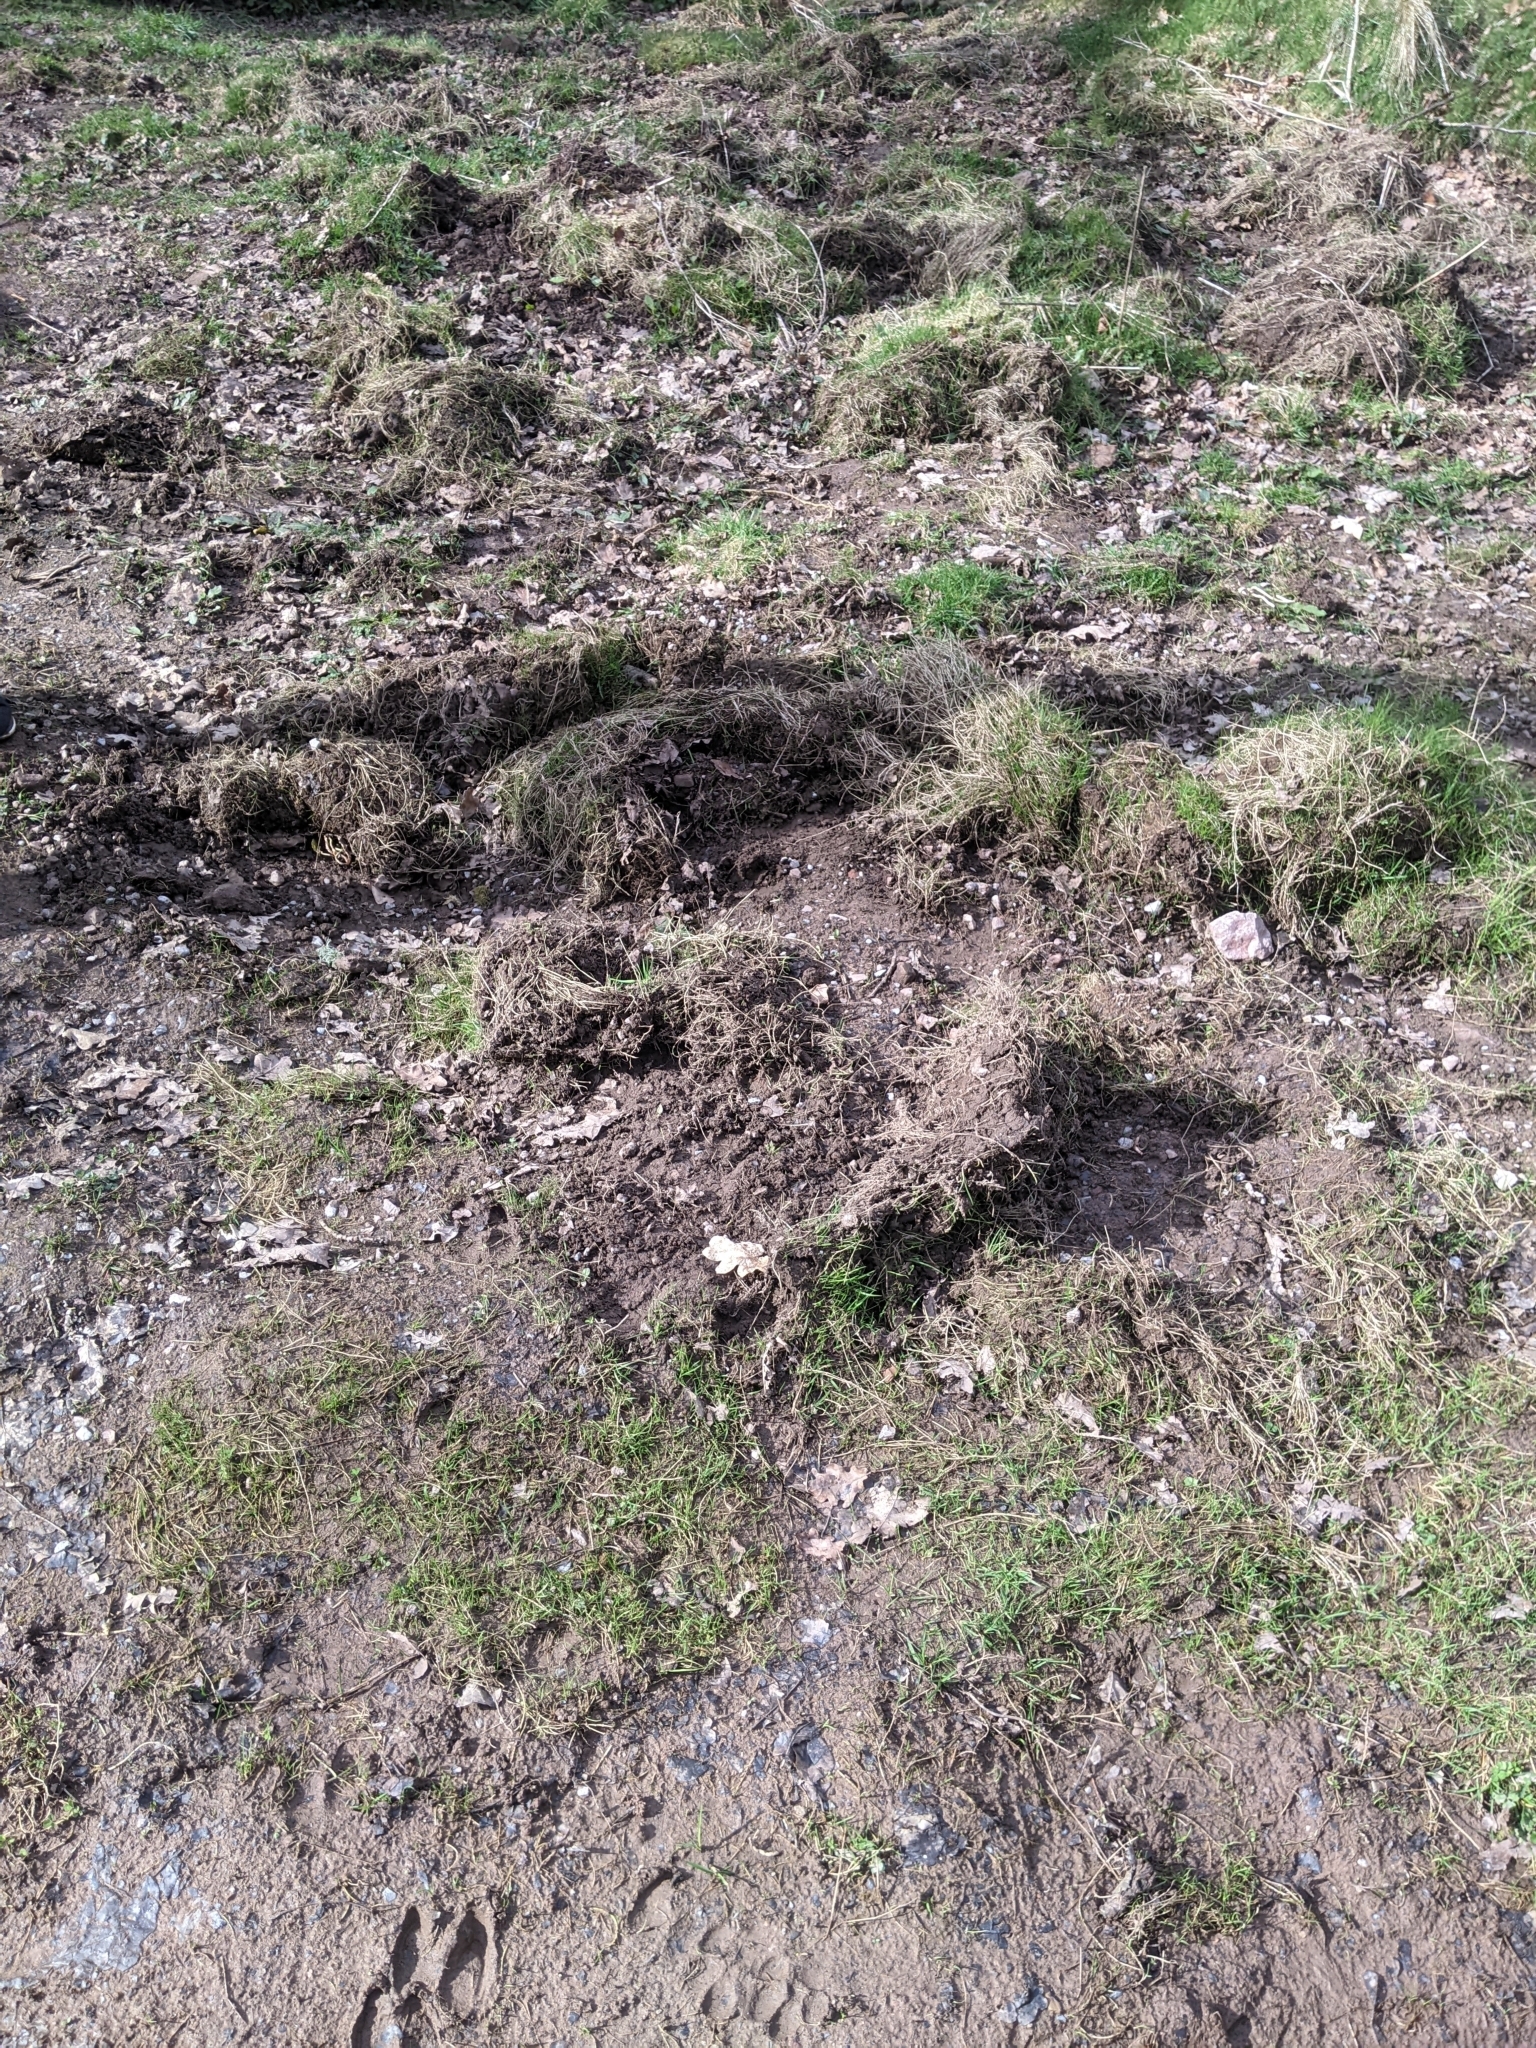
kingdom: Animalia
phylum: Chordata
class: Mammalia
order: Artiodactyla
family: Suidae
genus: Sus
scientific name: Sus scrofa
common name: Wild boar
